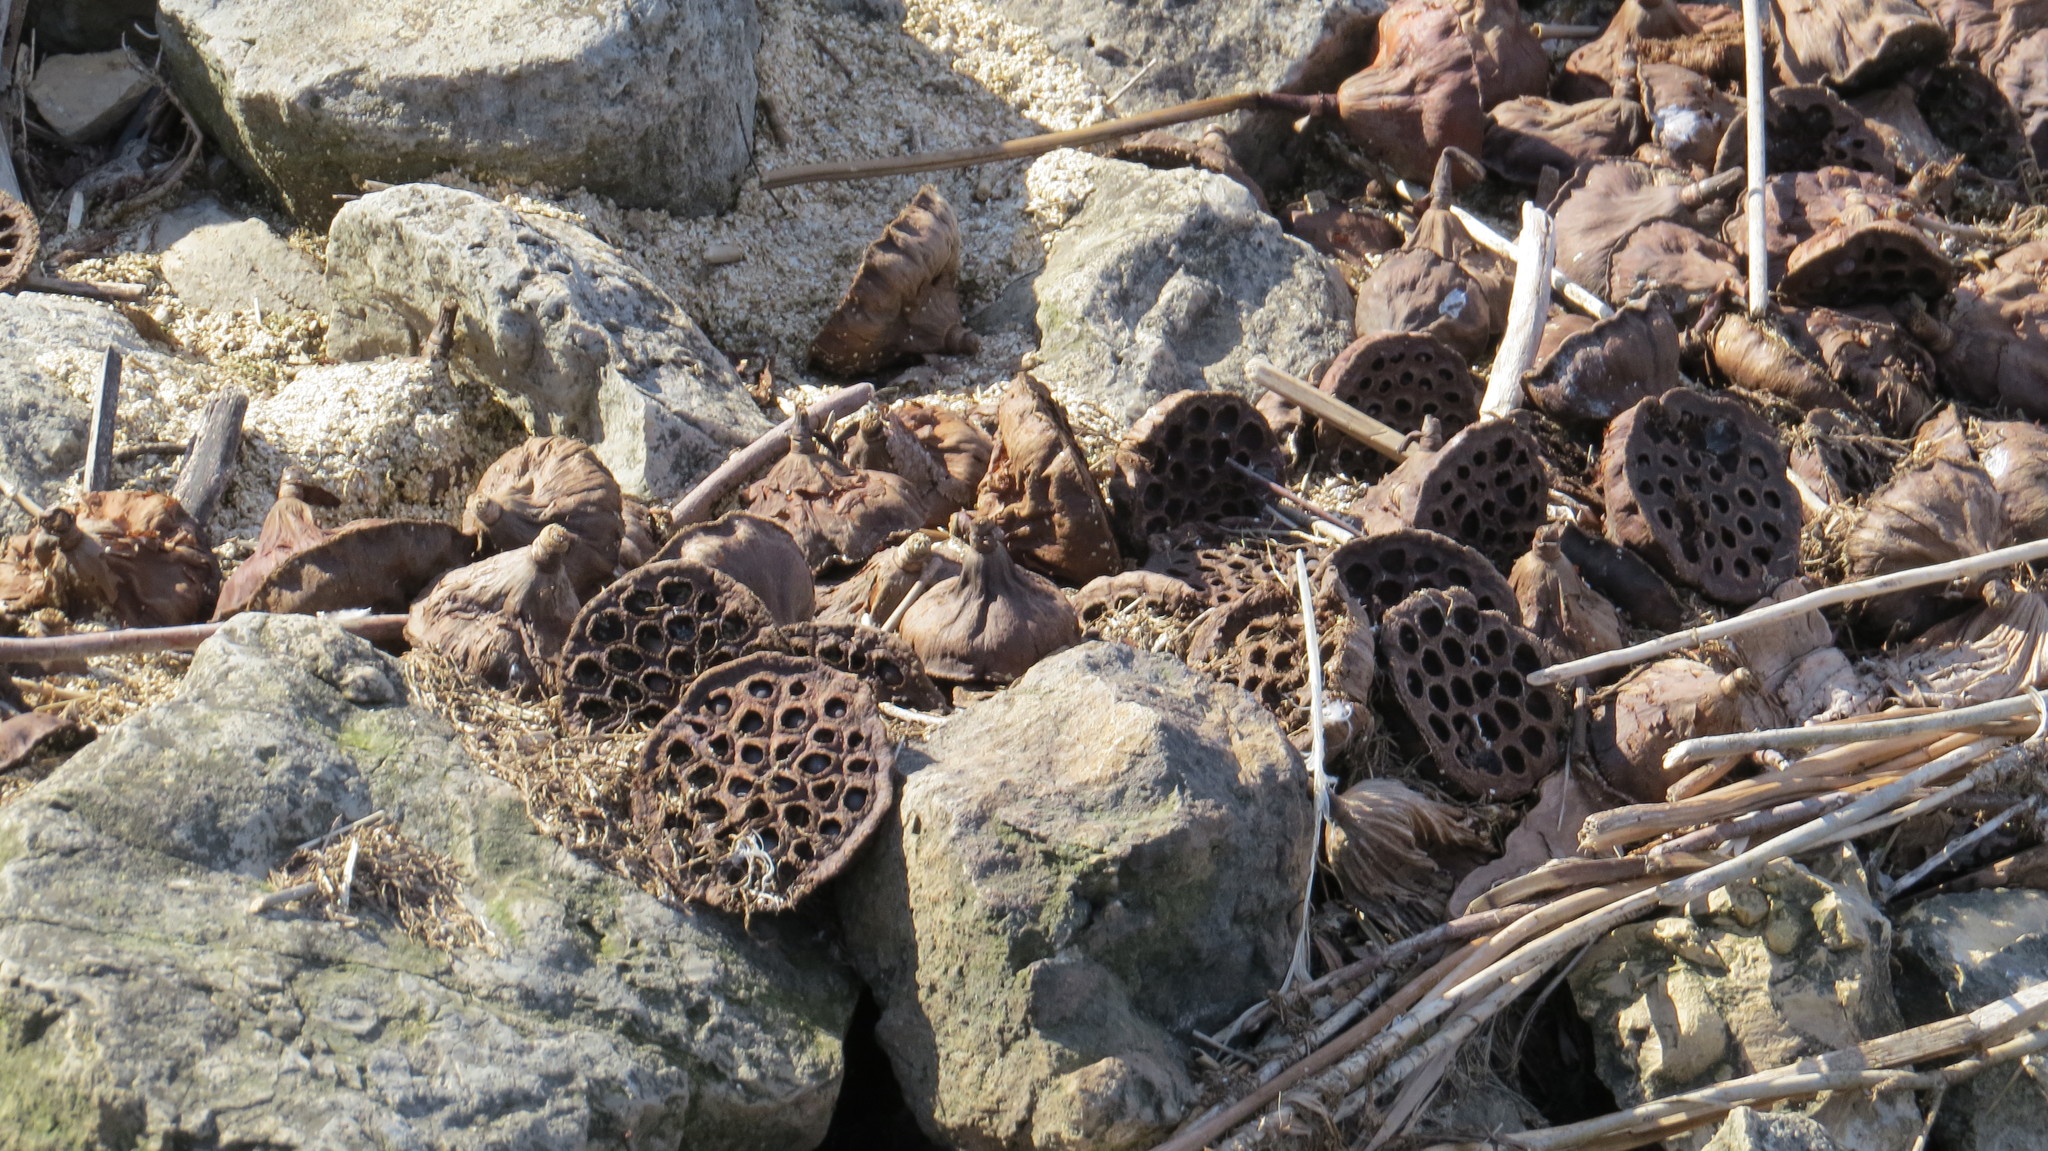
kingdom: Plantae
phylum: Tracheophyta
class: Magnoliopsida
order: Proteales
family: Nelumbonaceae
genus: Nelumbo
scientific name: Nelumbo lutea
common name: American lotus
